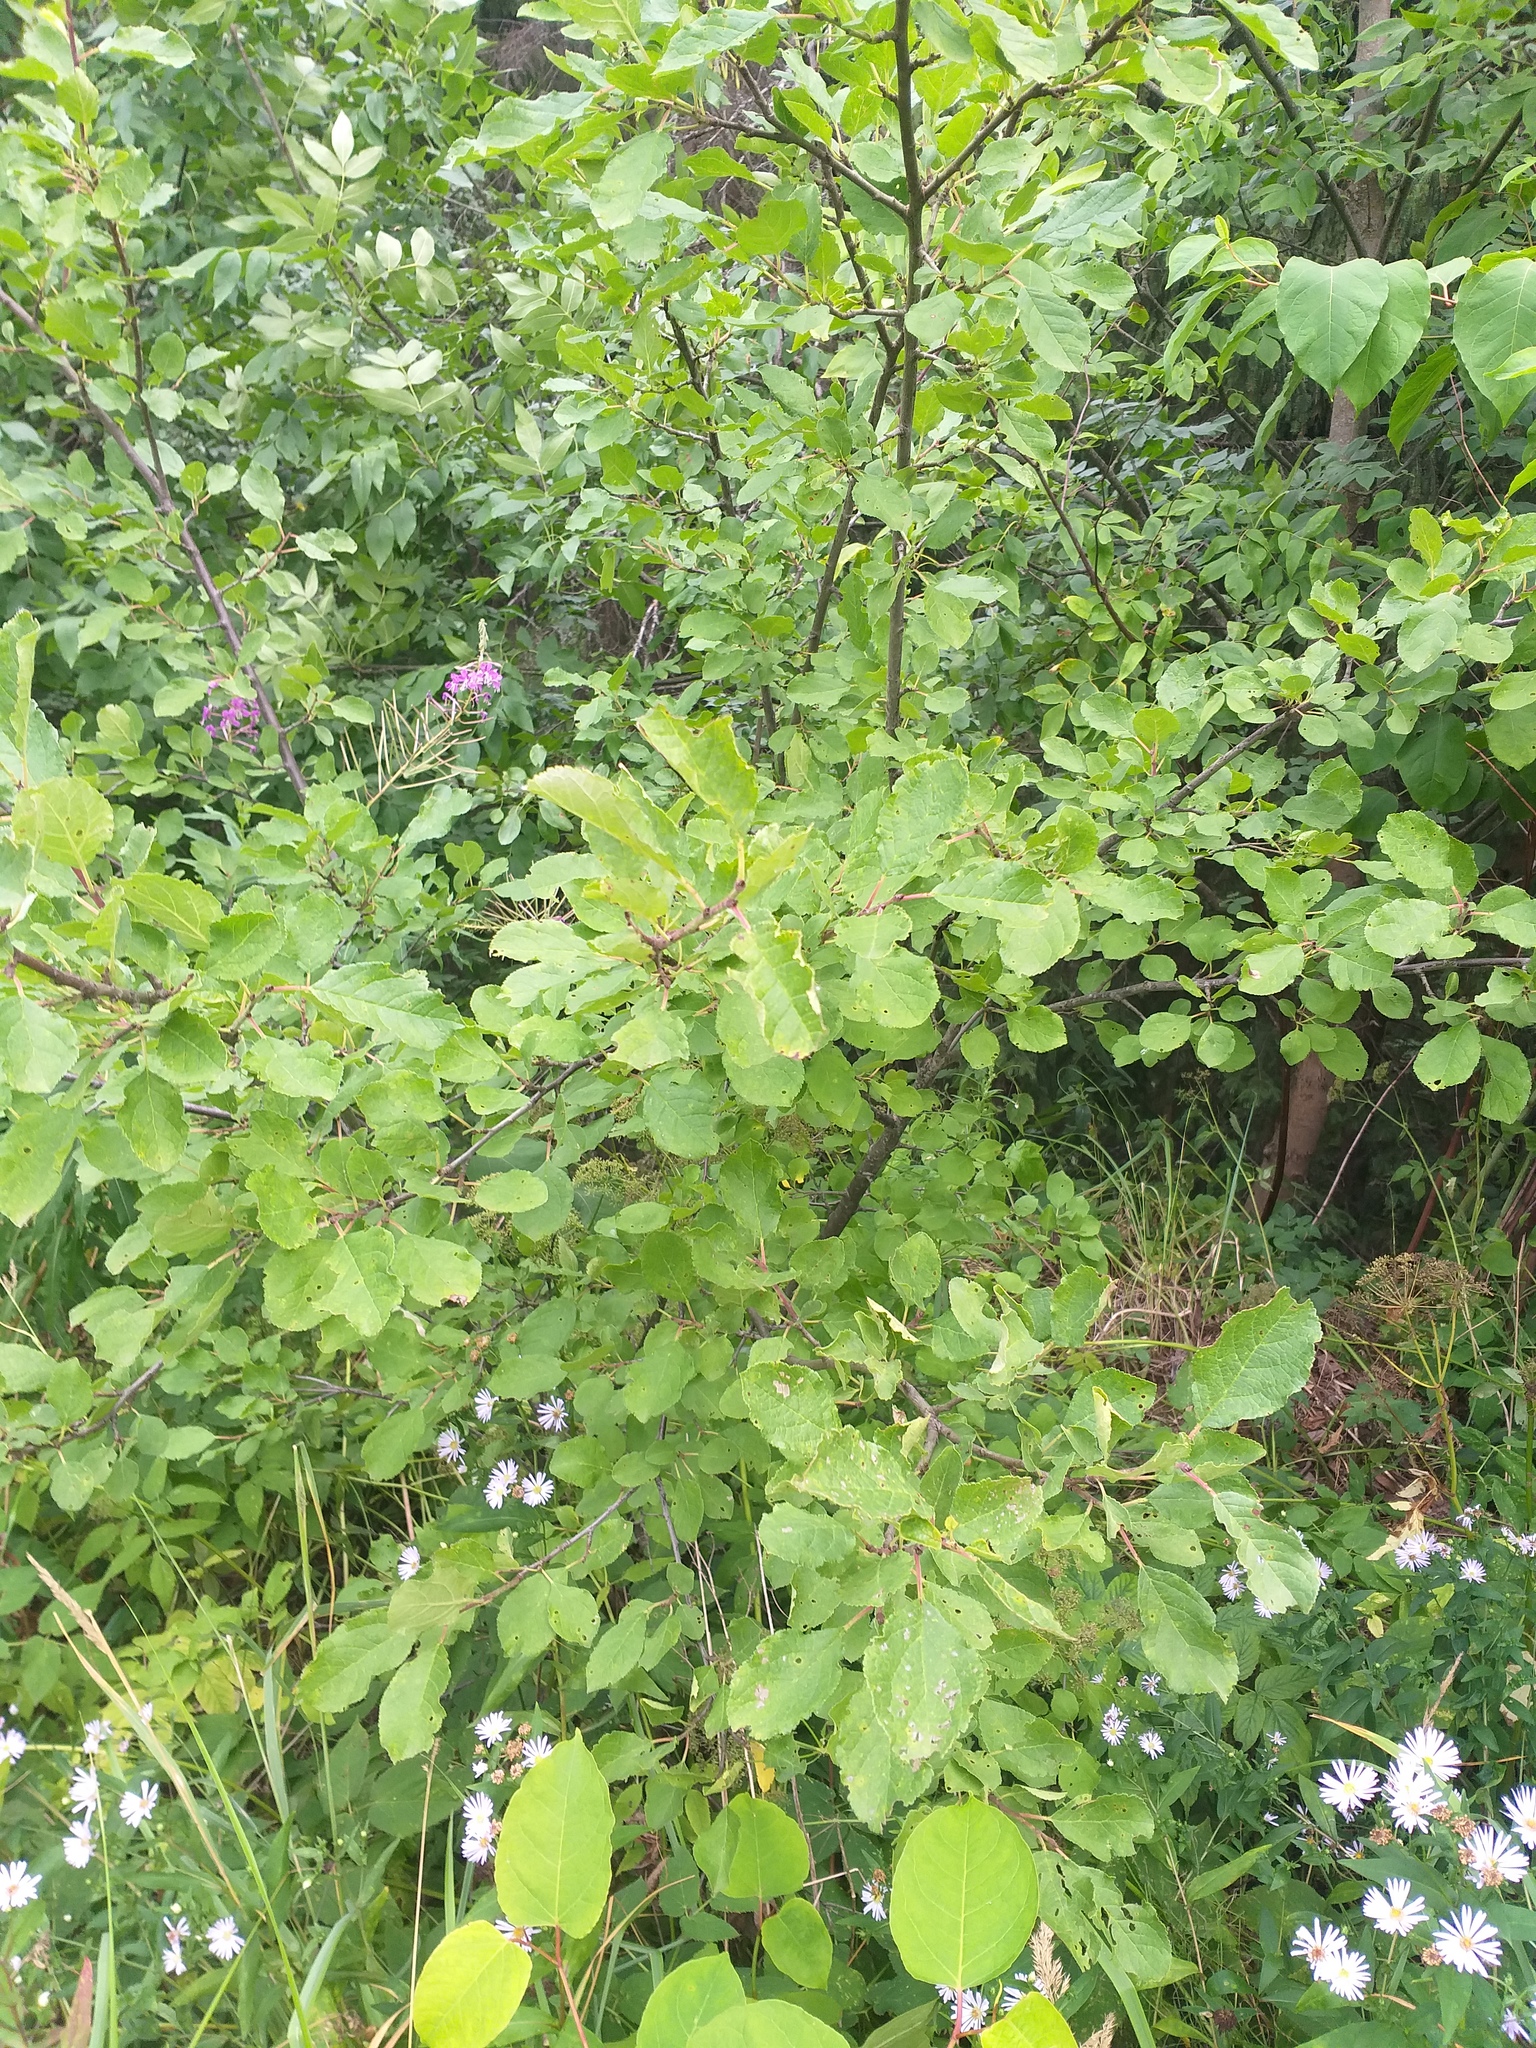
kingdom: Plantae
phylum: Tracheophyta
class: Magnoliopsida
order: Rosales
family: Rosaceae
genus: Prunus
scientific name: Prunus domestica
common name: Wild plum
